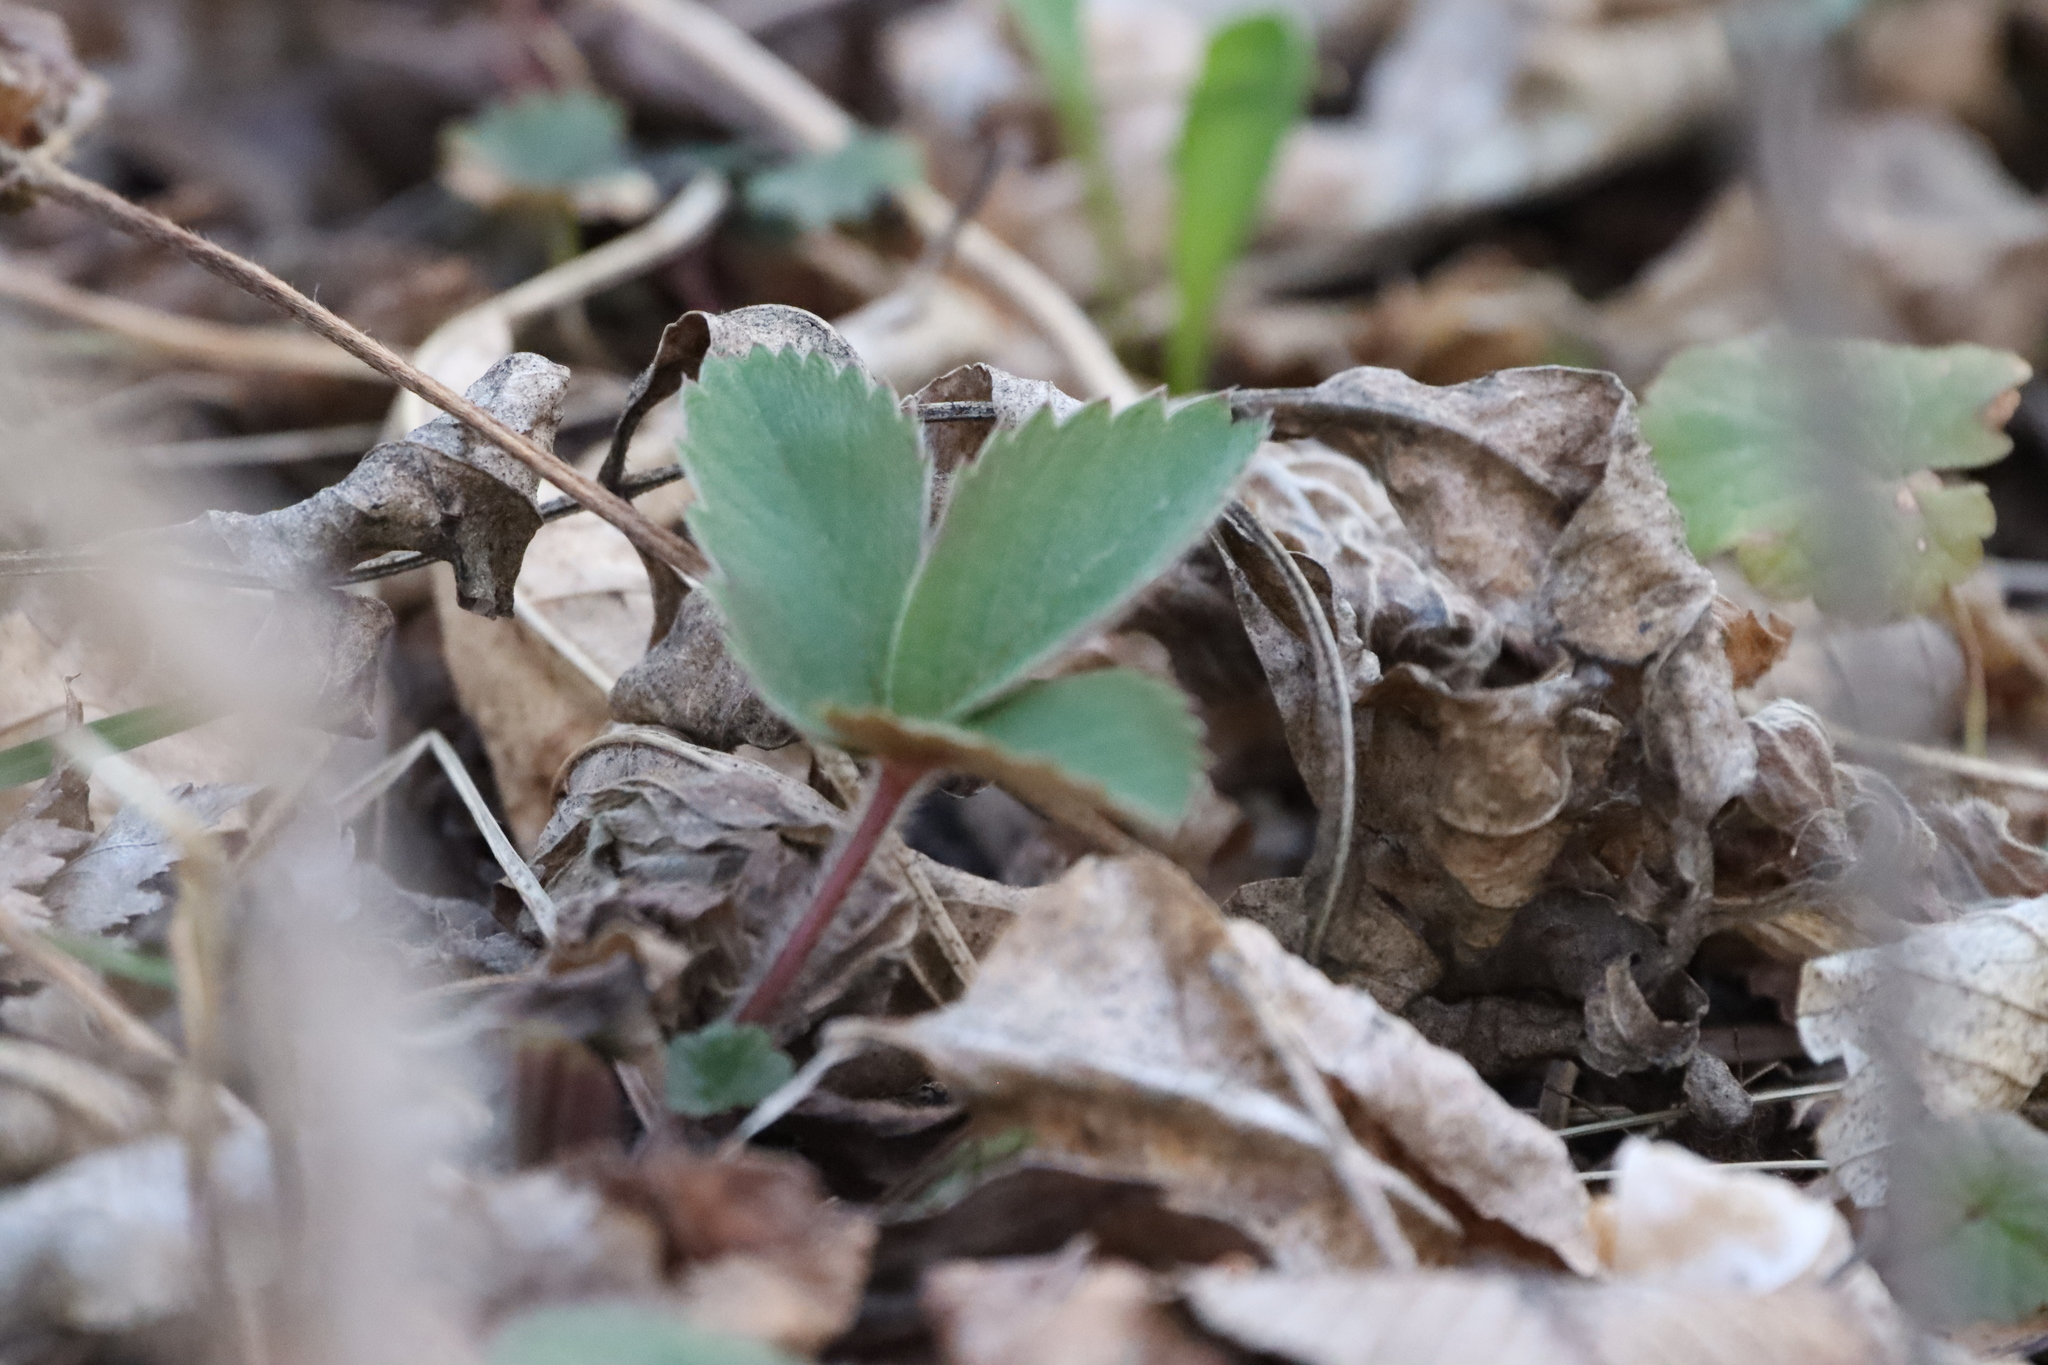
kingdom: Plantae
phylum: Tracheophyta
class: Magnoliopsida
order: Rosales
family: Rosaceae
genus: Fragaria
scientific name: Fragaria virginiana
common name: Thickleaved wild strawberry
